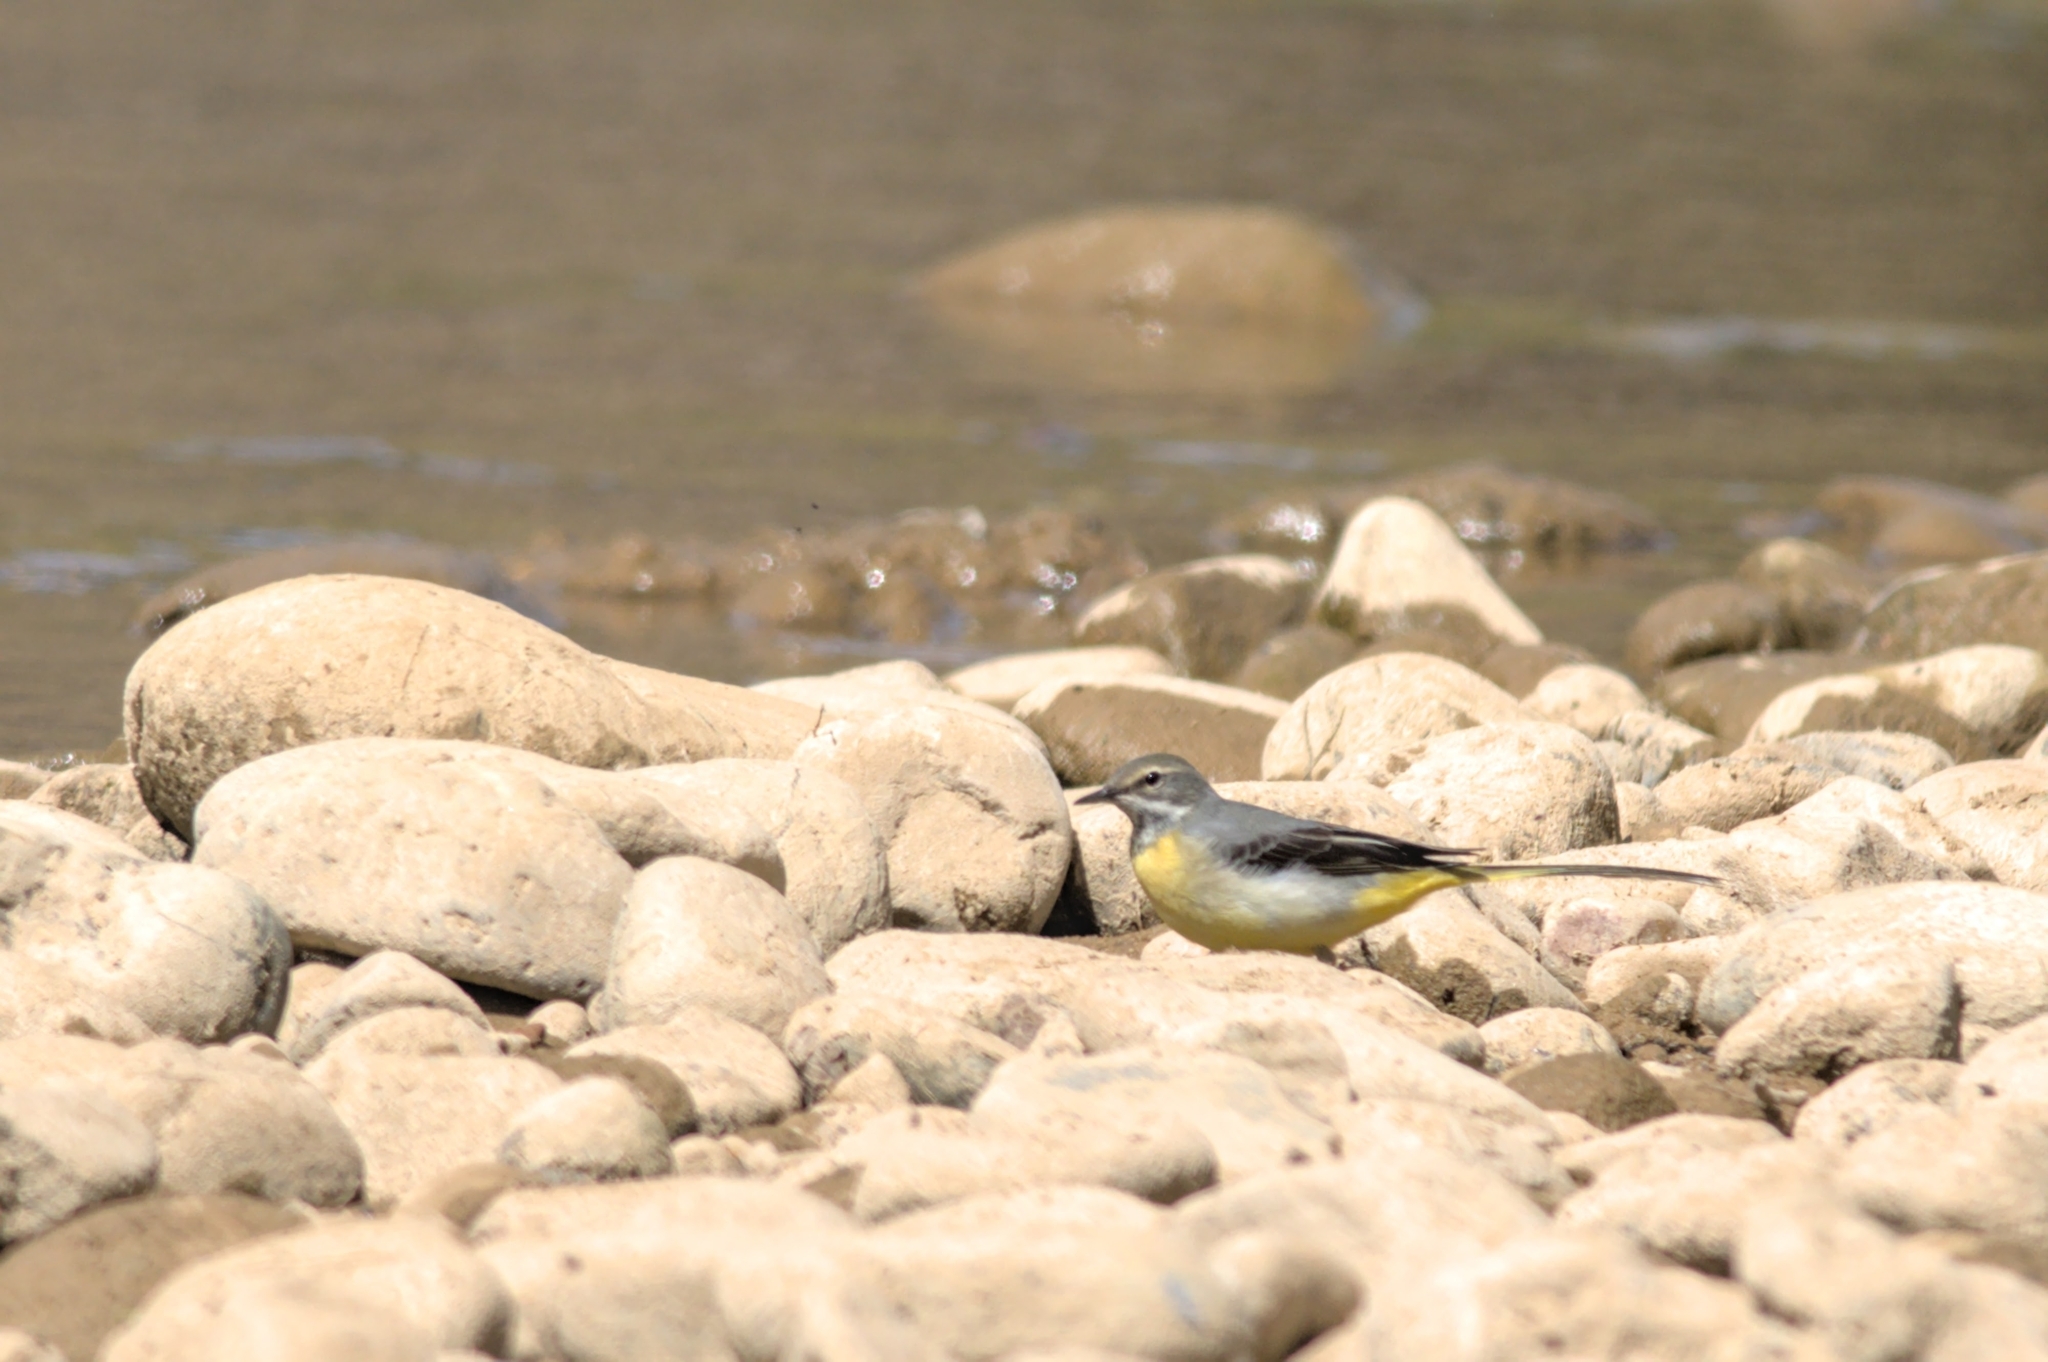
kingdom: Animalia
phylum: Chordata
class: Aves
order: Passeriformes
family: Motacillidae
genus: Motacilla
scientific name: Motacilla cinerea
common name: Grey wagtail
